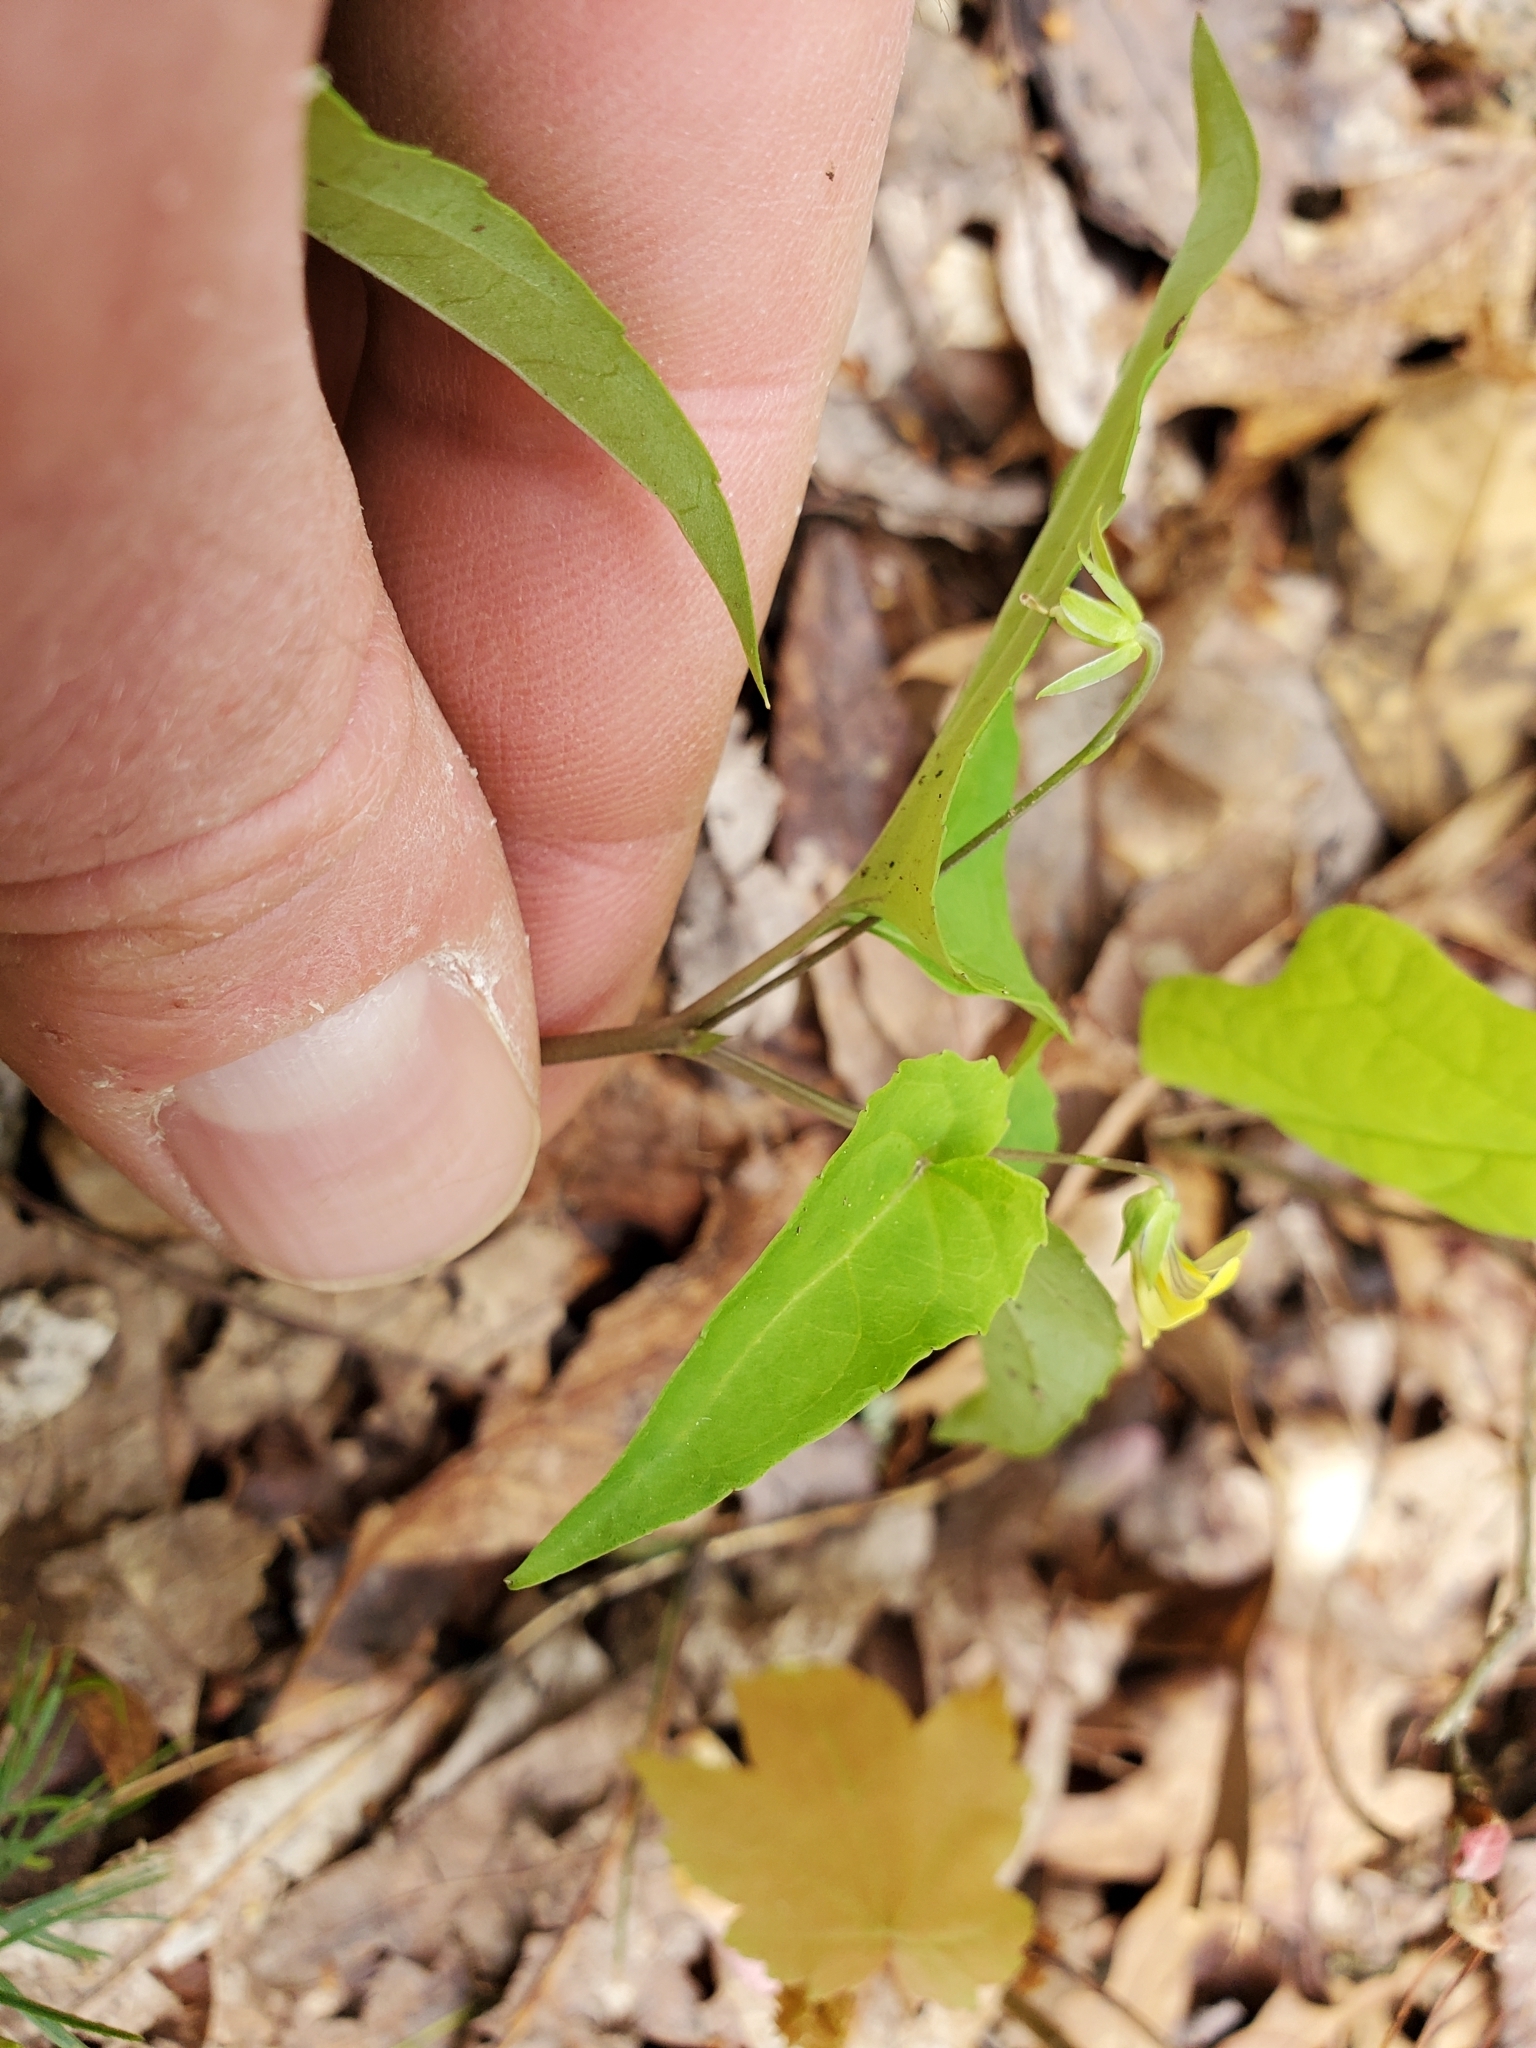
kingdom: Plantae
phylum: Tracheophyta
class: Magnoliopsida
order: Malpighiales
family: Violaceae
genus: Viola
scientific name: Viola hastata
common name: Spear-leaf violet
